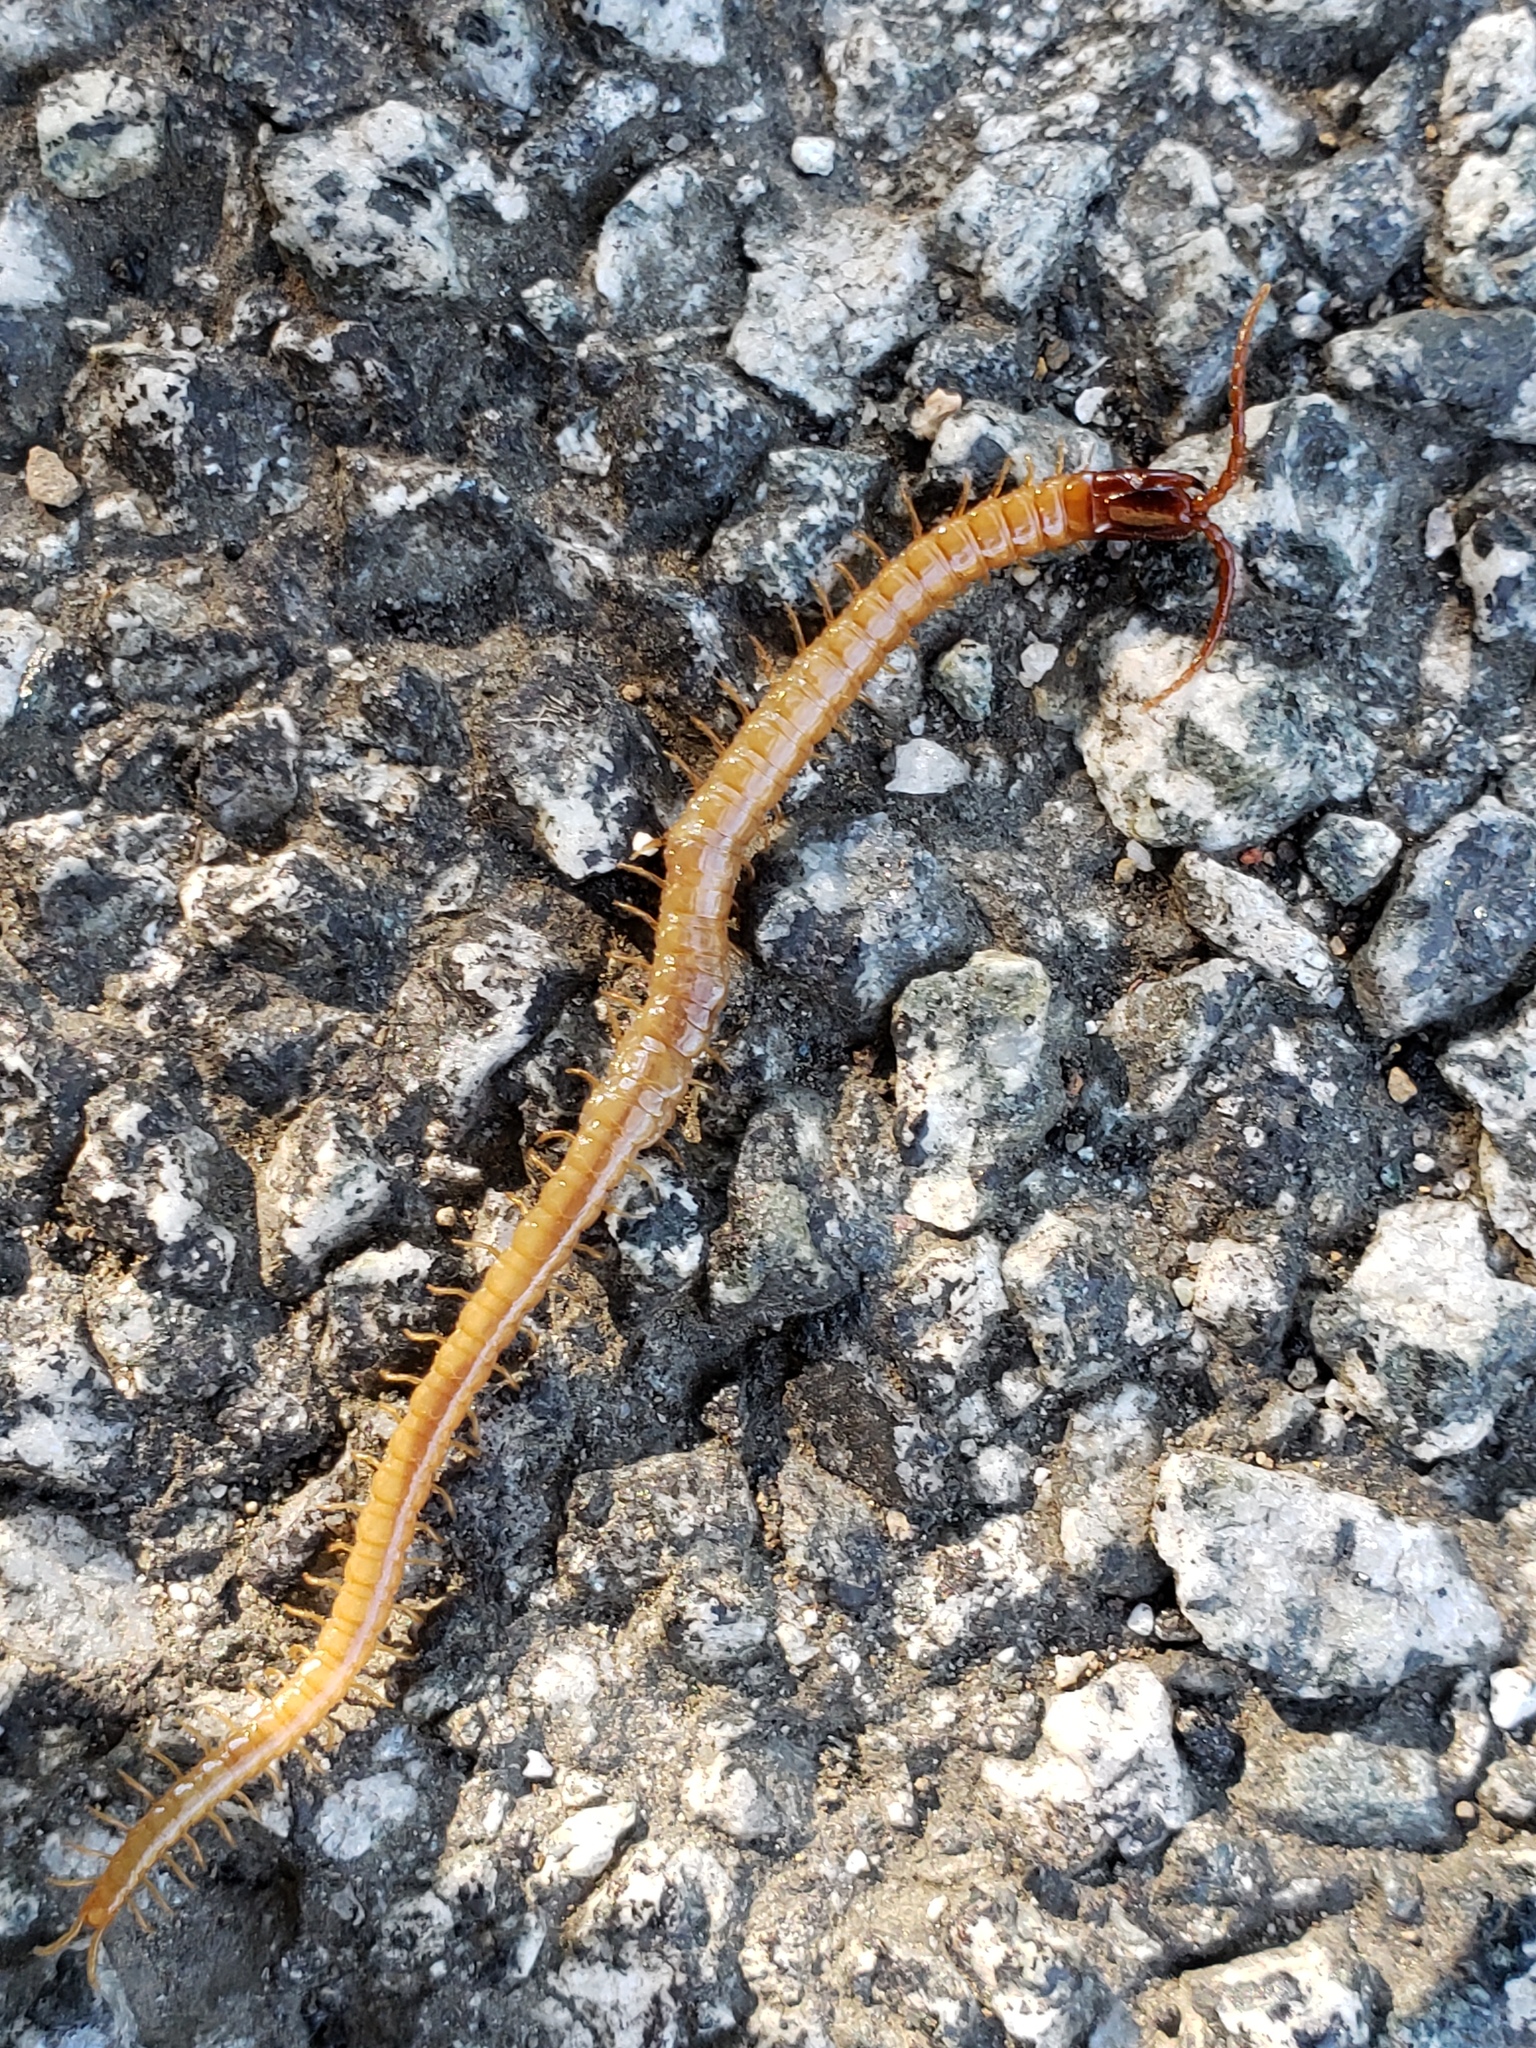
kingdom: Animalia
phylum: Arthropoda
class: Chilopoda
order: Geophilomorpha
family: Mecistocephalidae
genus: Dicellophilus
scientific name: Dicellophilus limatus
